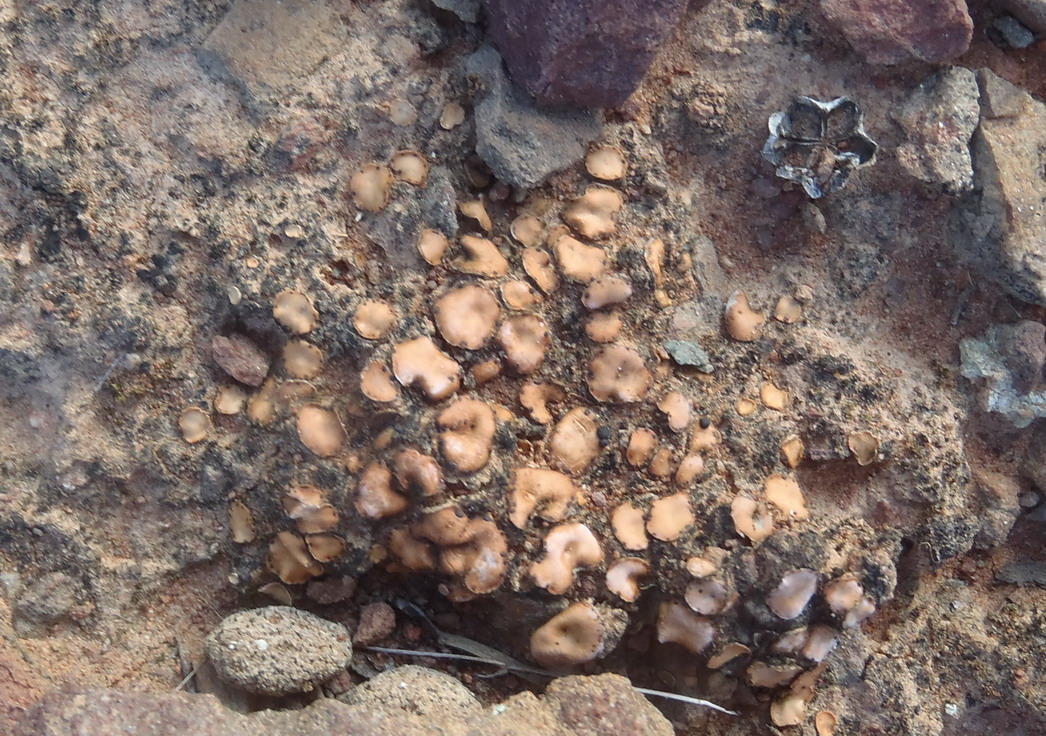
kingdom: Fungi
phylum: Ascomycota
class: Lecanoromycetes
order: Lecanorales
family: Psoraceae
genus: Psora
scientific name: Psora decipiens
